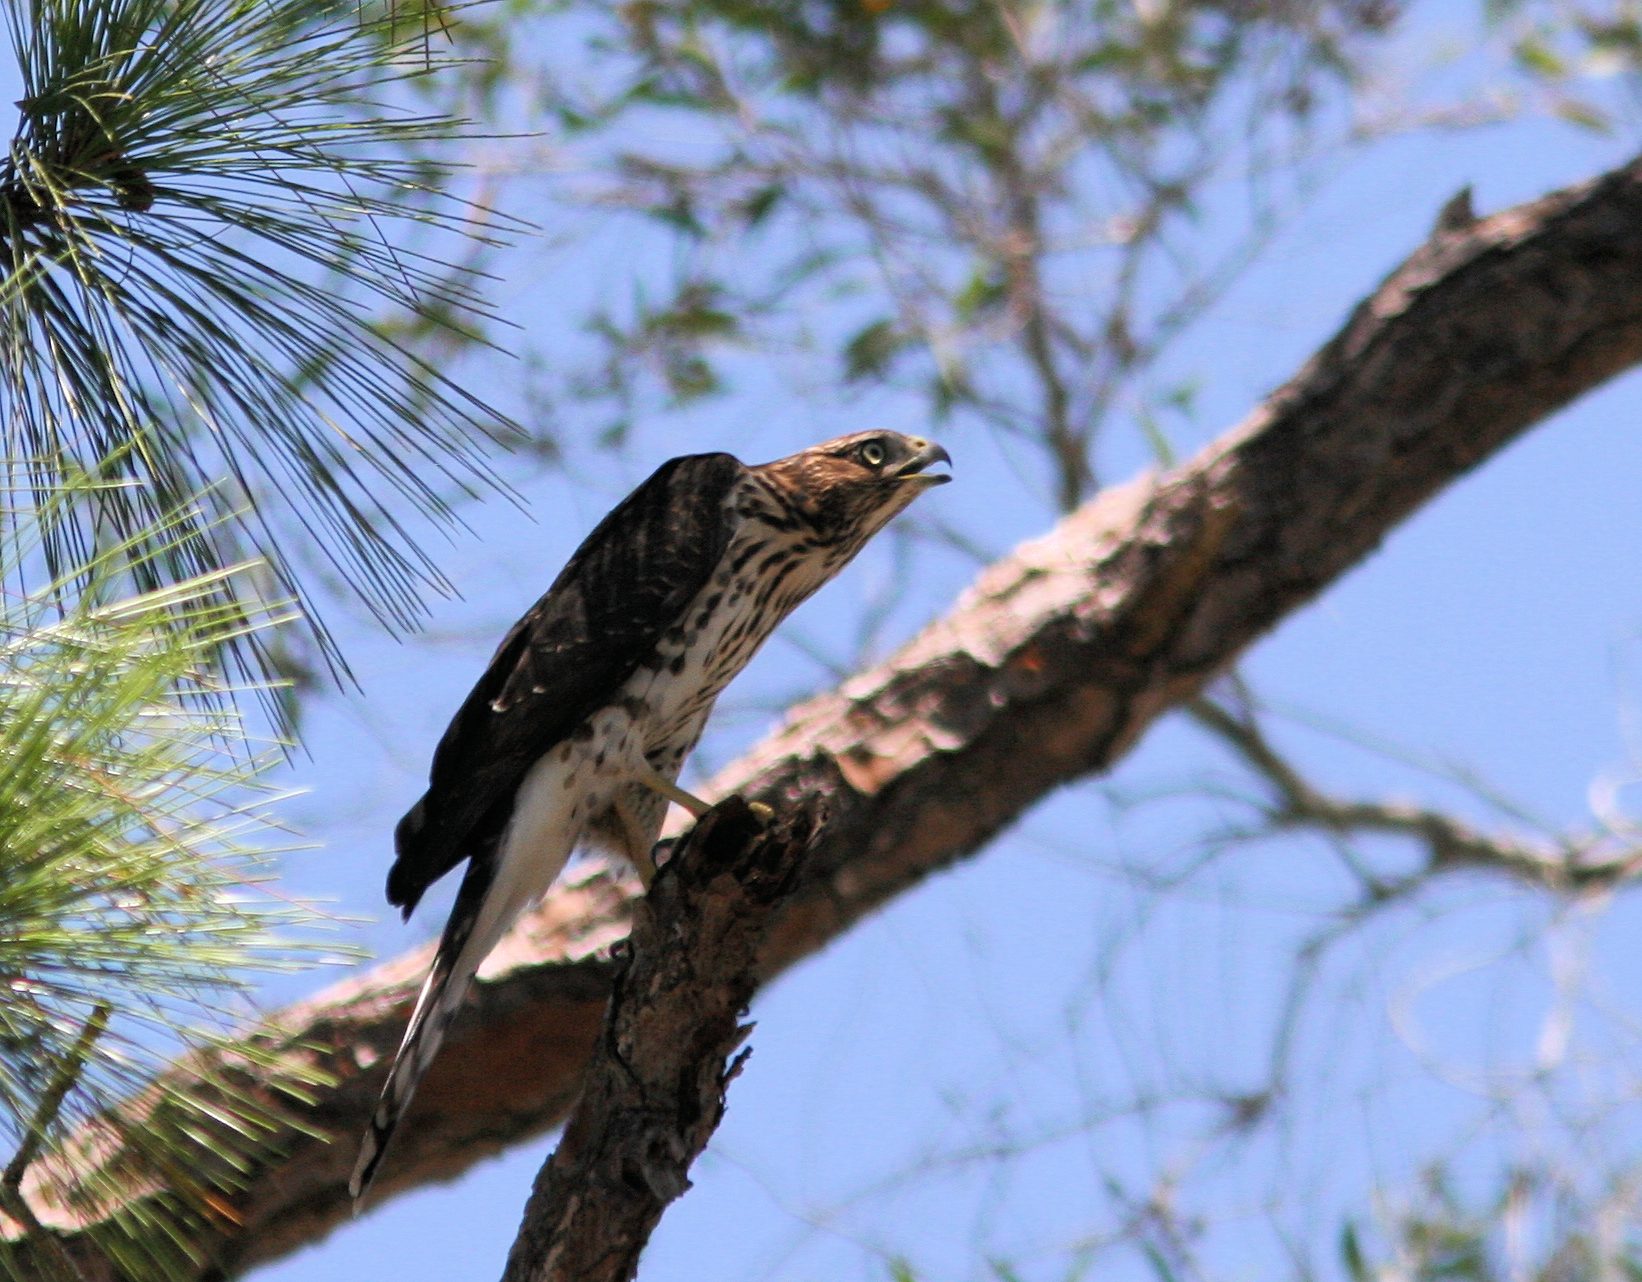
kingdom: Animalia
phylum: Chordata
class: Aves
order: Accipitriformes
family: Accipitridae
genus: Accipiter
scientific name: Accipiter cooperii
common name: Cooper's hawk
